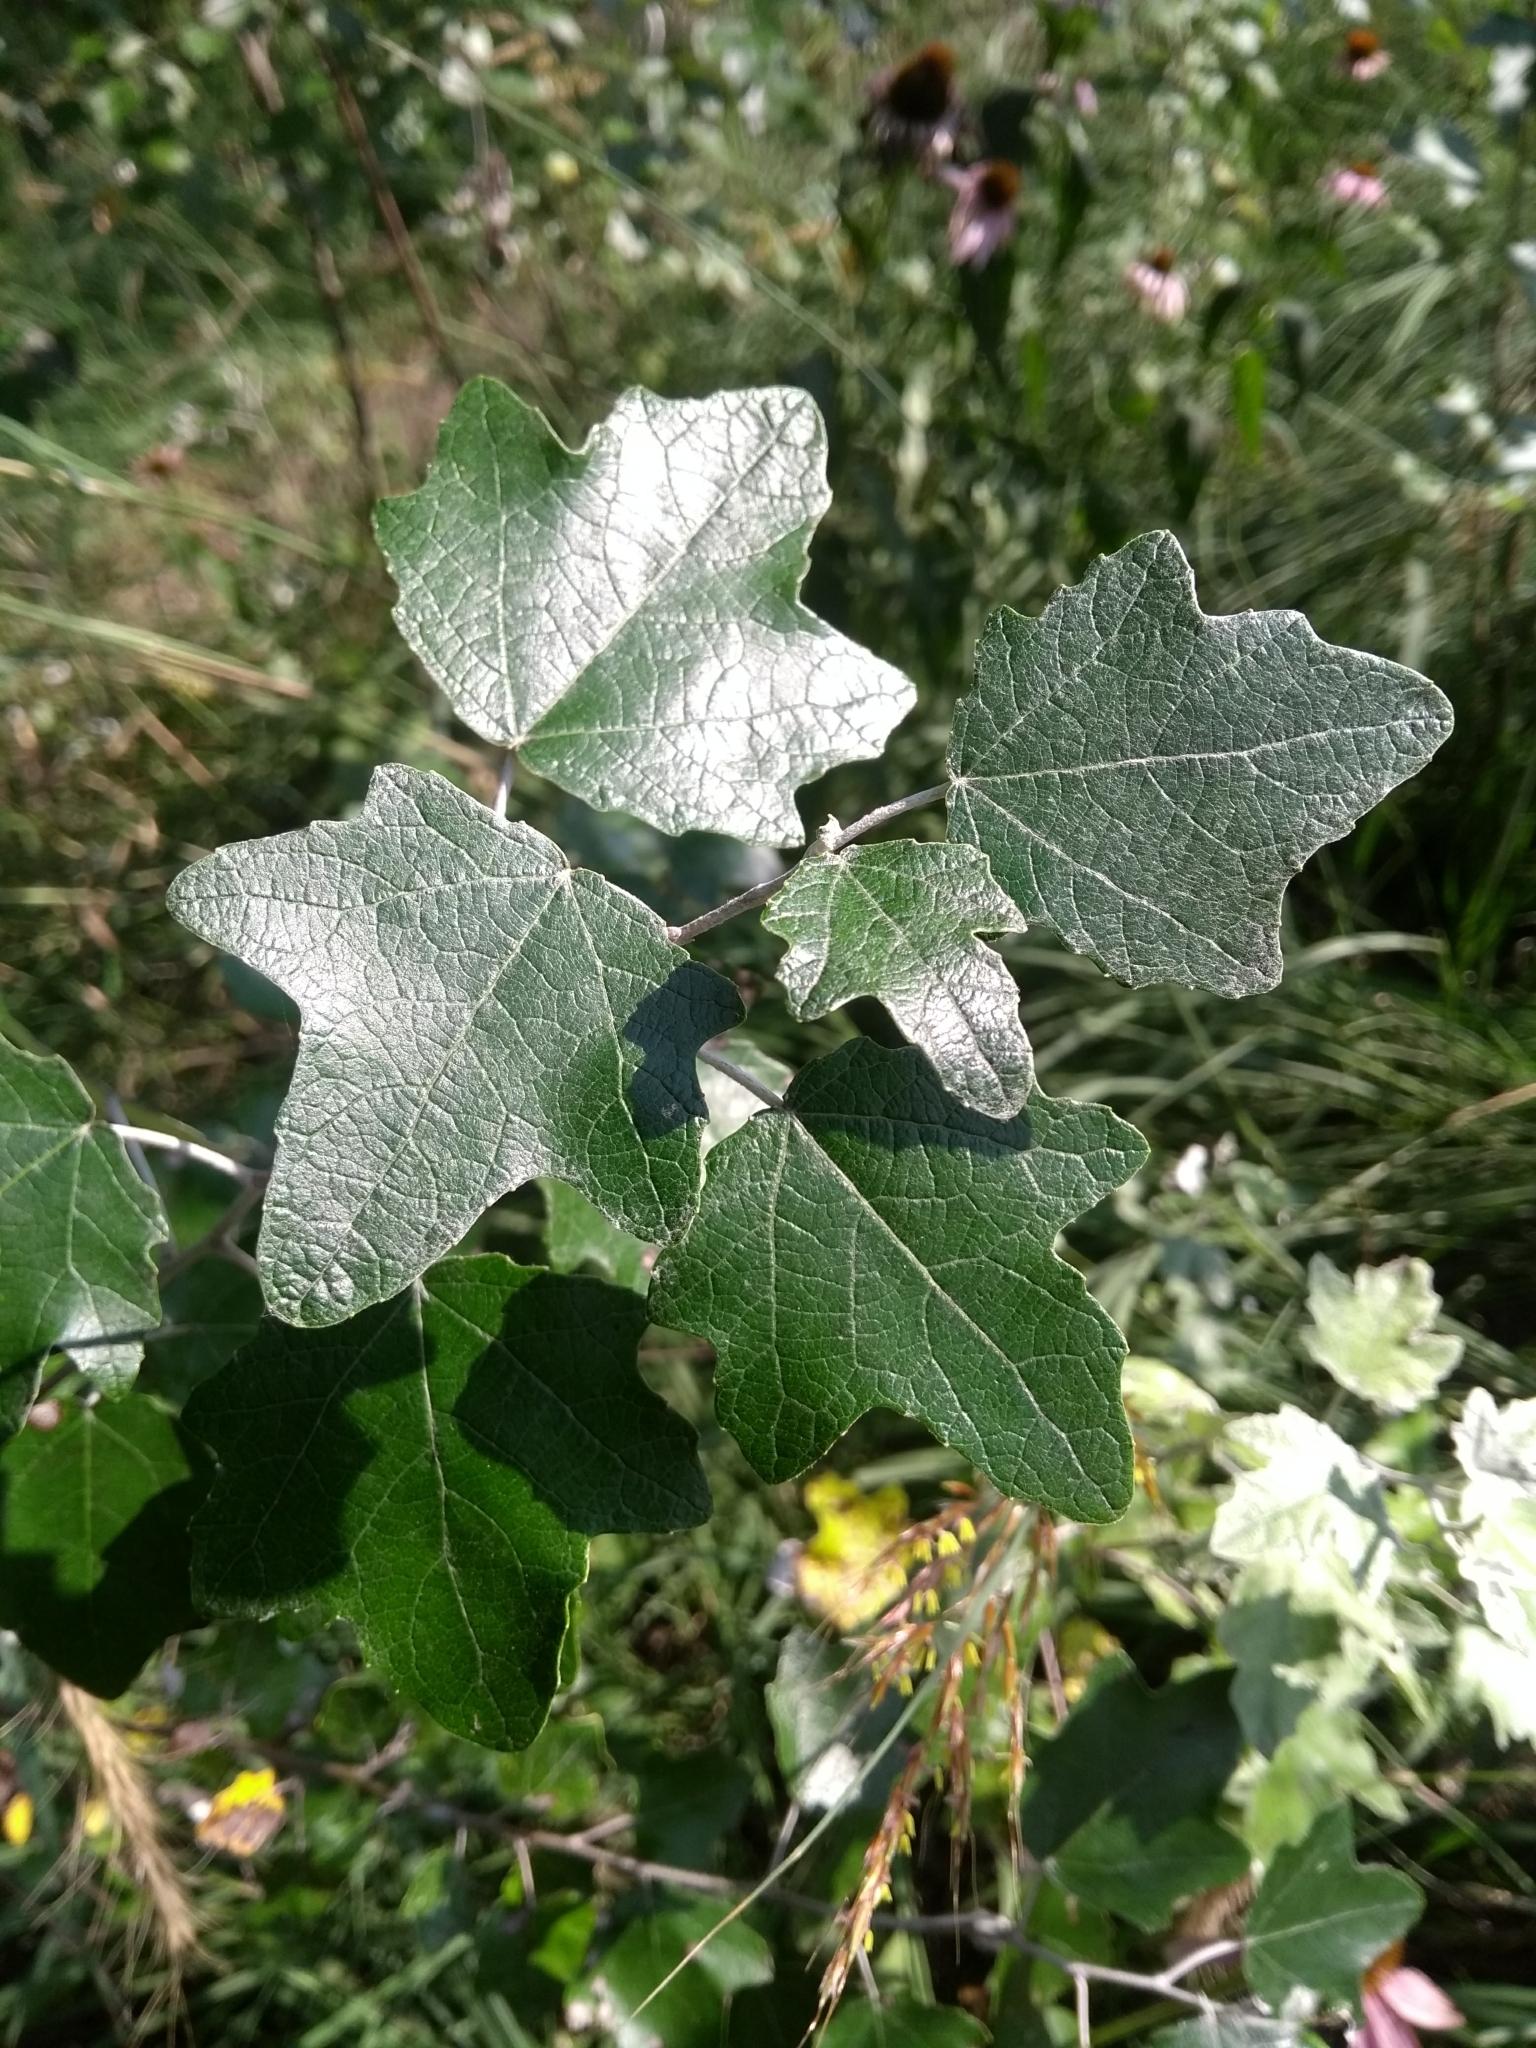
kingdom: Plantae
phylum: Tracheophyta
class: Magnoliopsida
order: Malpighiales
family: Salicaceae
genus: Populus
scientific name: Populus alba
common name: White poplar
